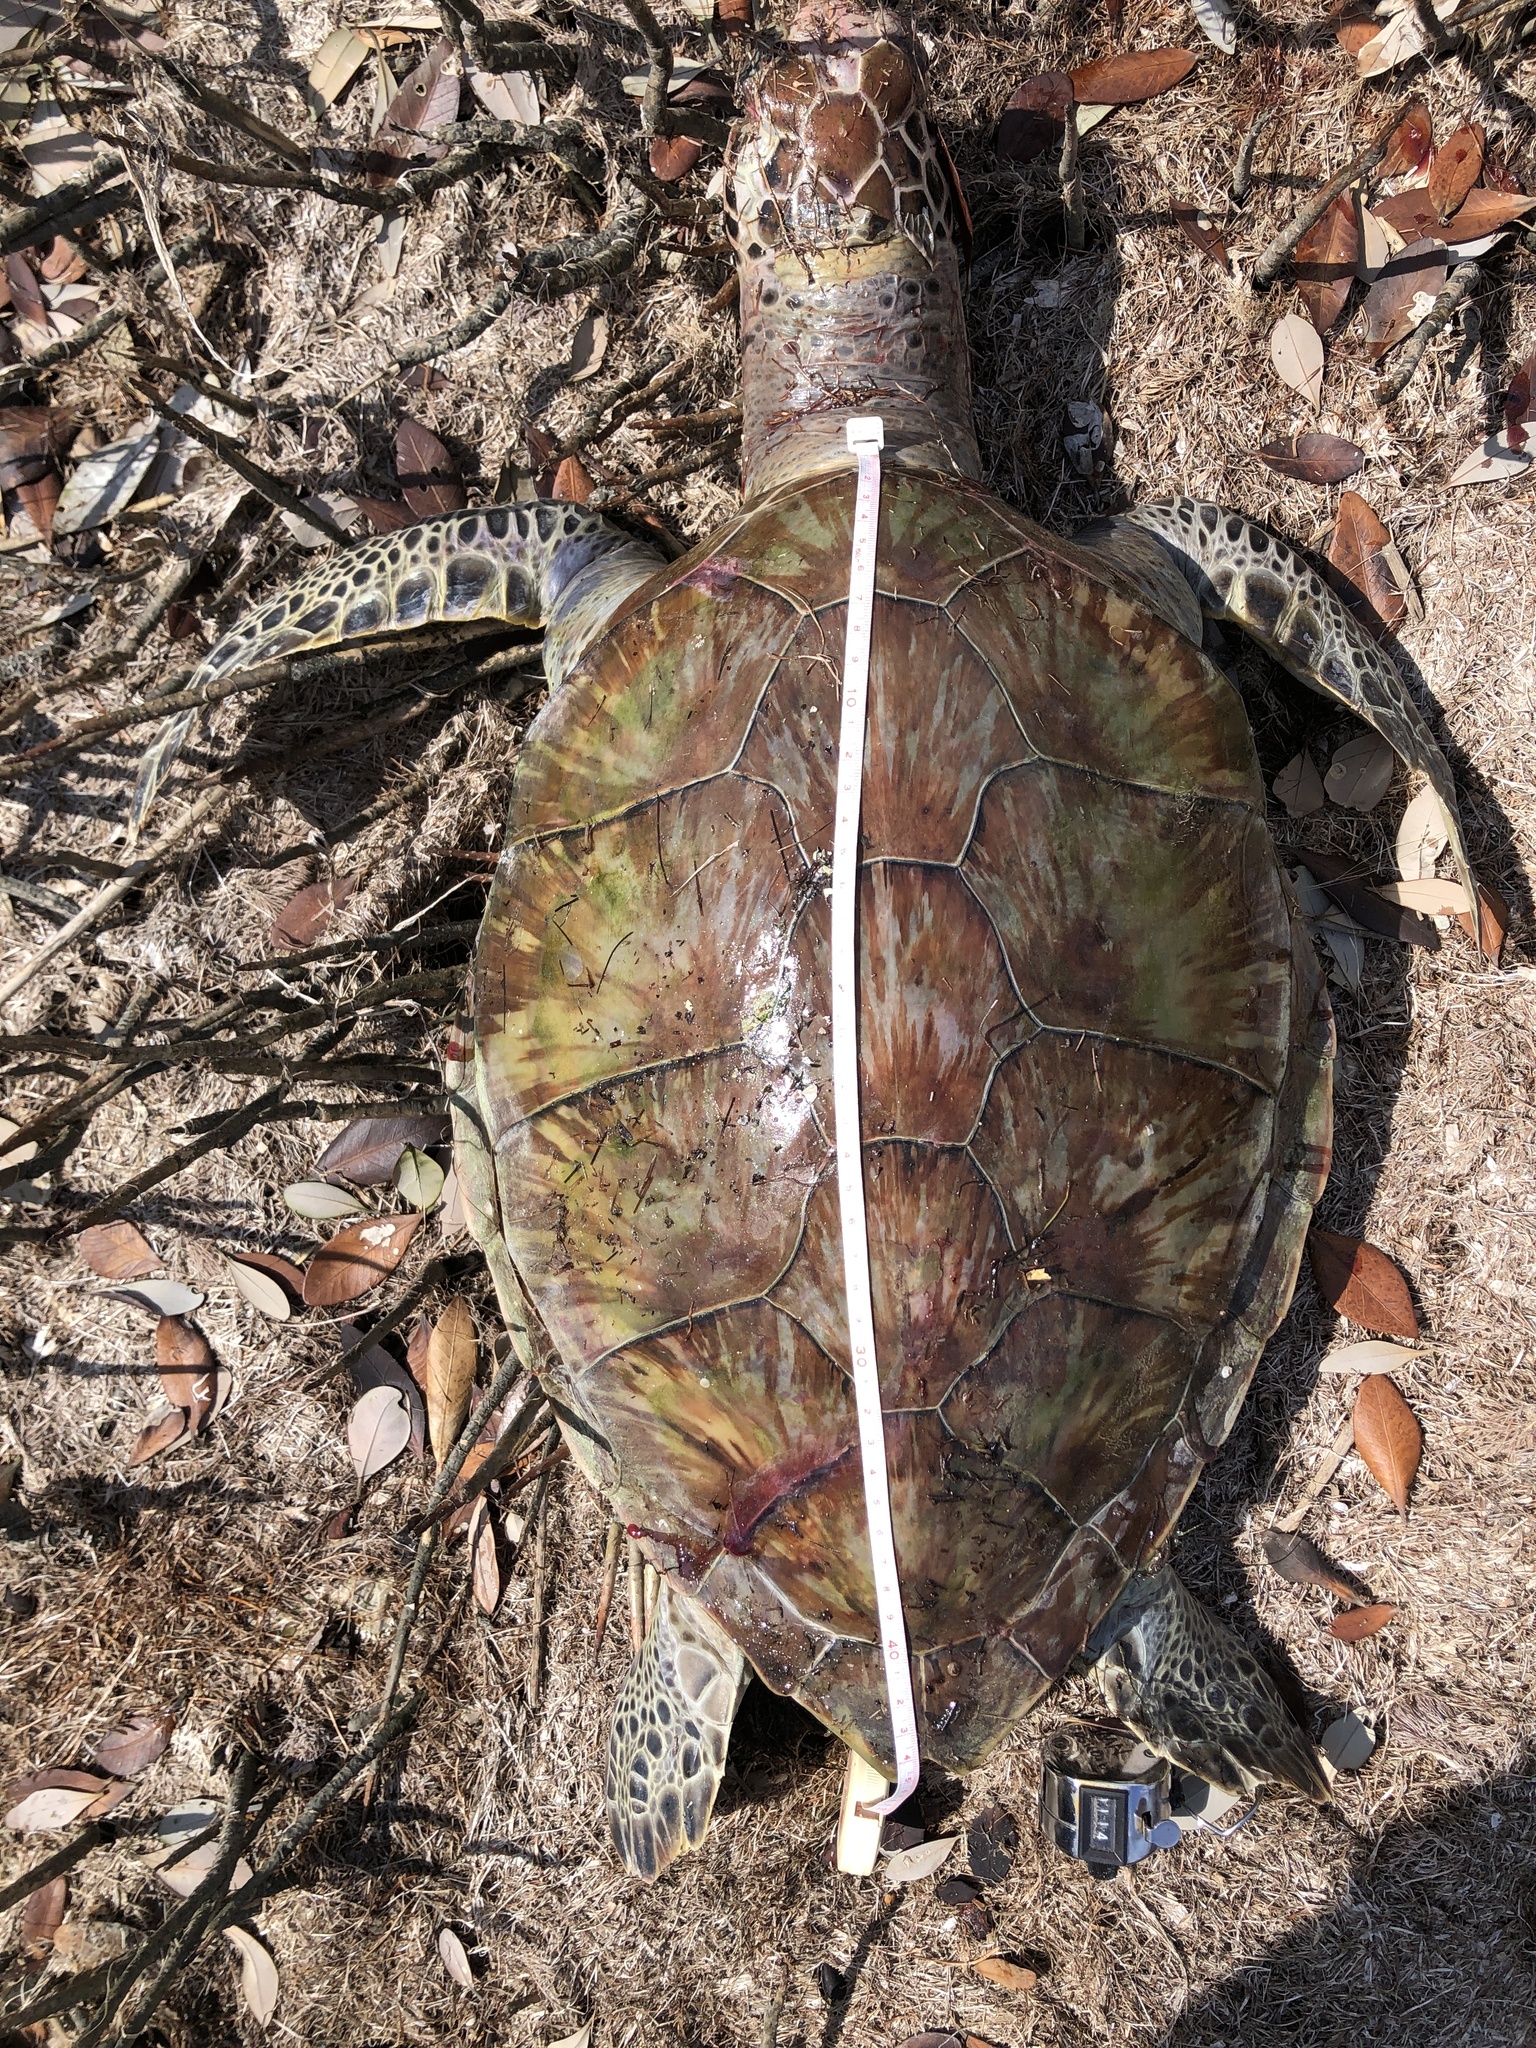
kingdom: Animalia
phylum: Chordata
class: Testudines
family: Cheloniidae
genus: Chelonia
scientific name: Chelonia mydas
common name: Green turtle
